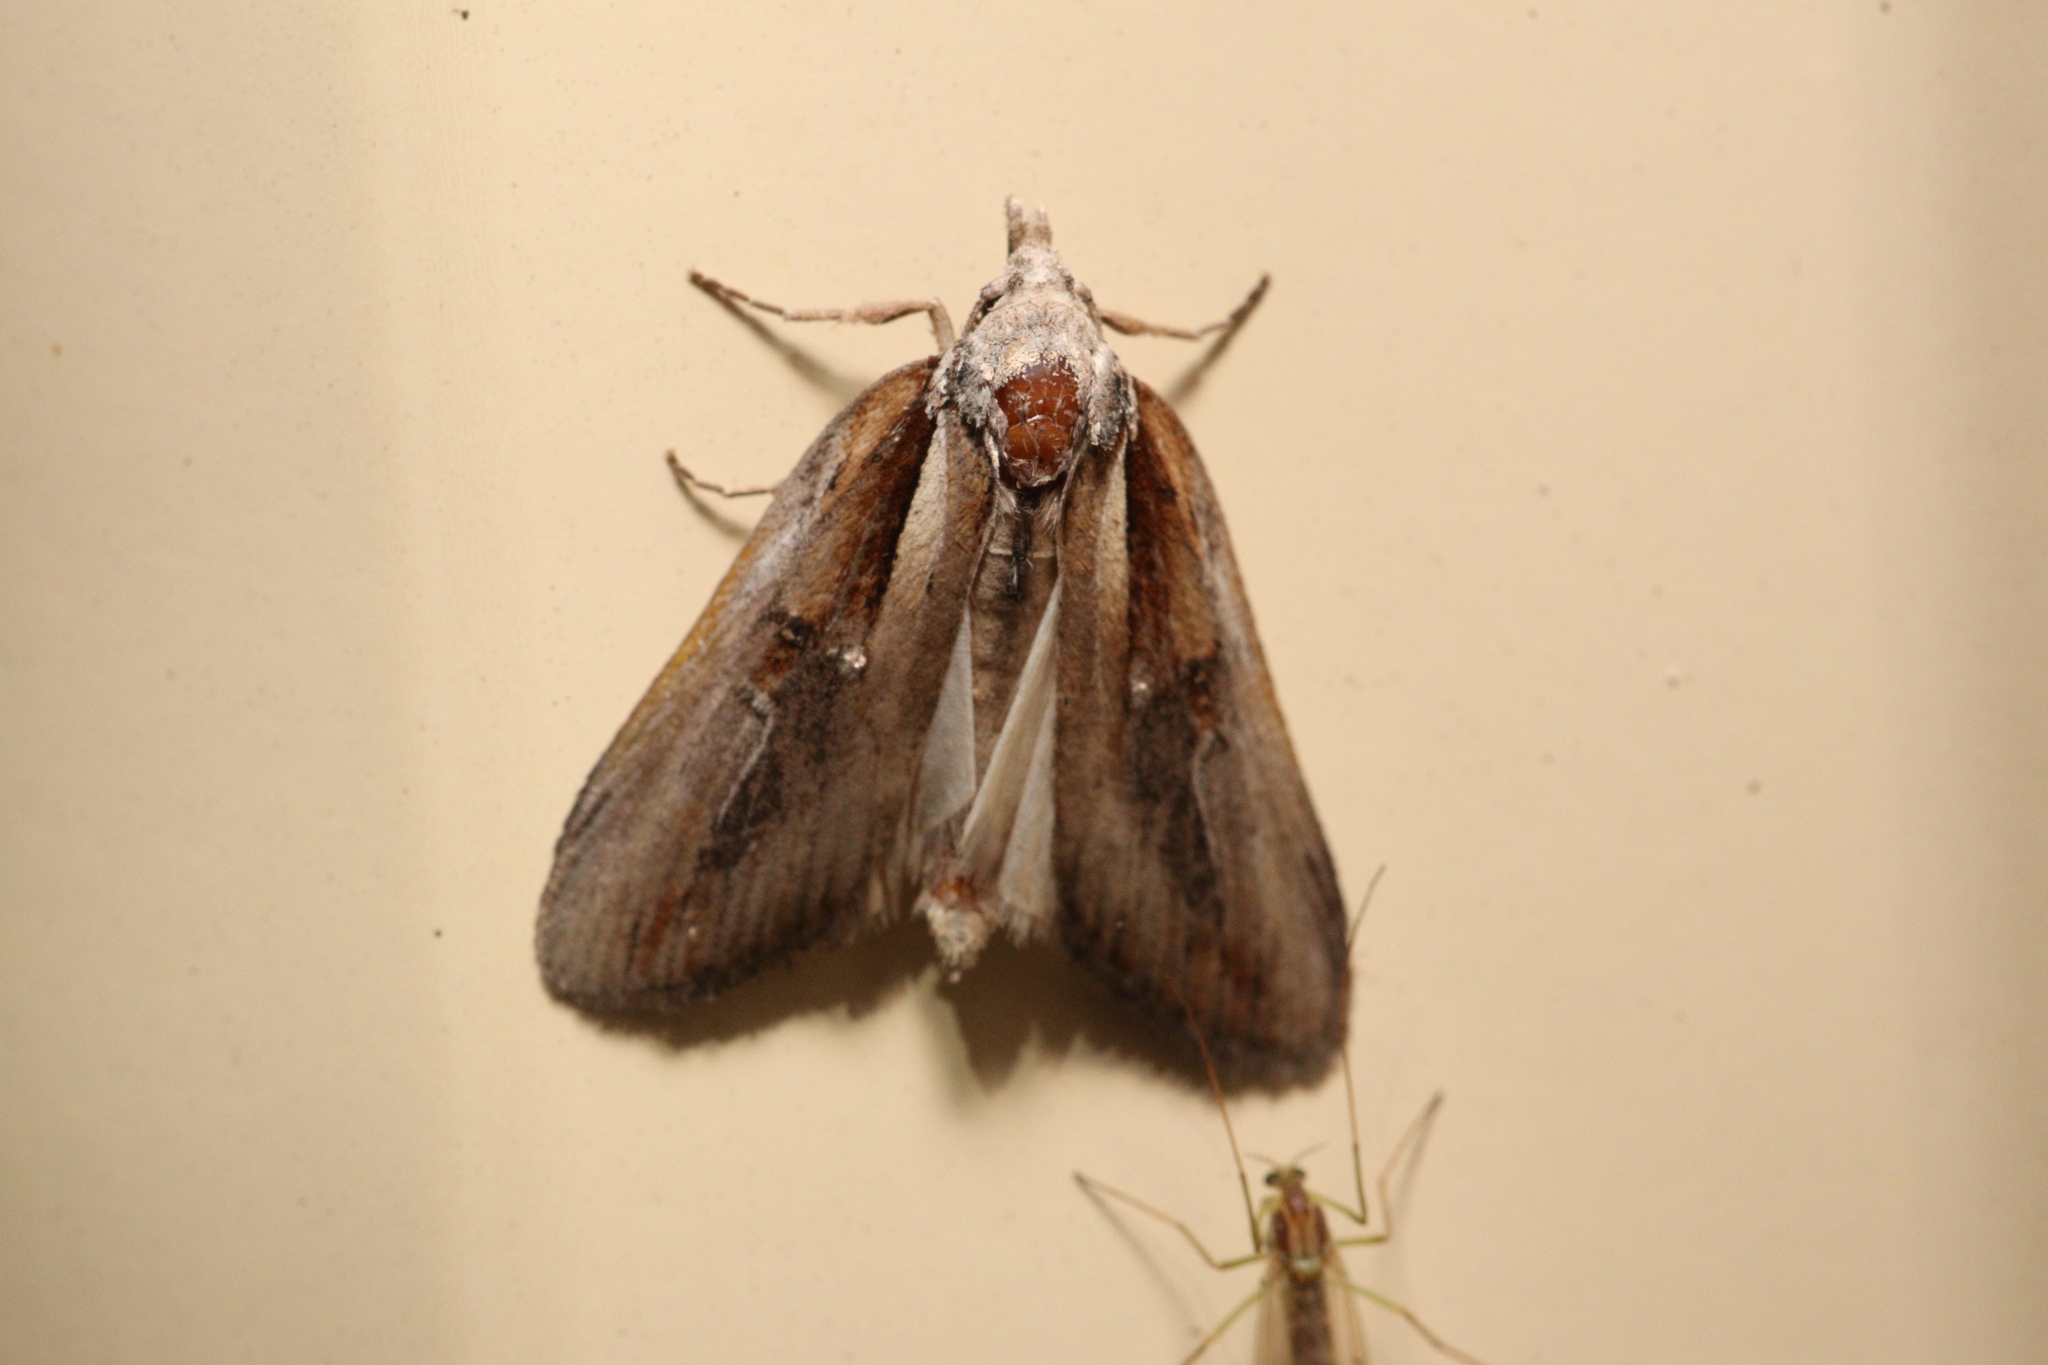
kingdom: Animalia
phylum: Arthropoda
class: Insecta
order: Lepidoptera
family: Nolidae
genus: Aquita
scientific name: Aquita tactalis
